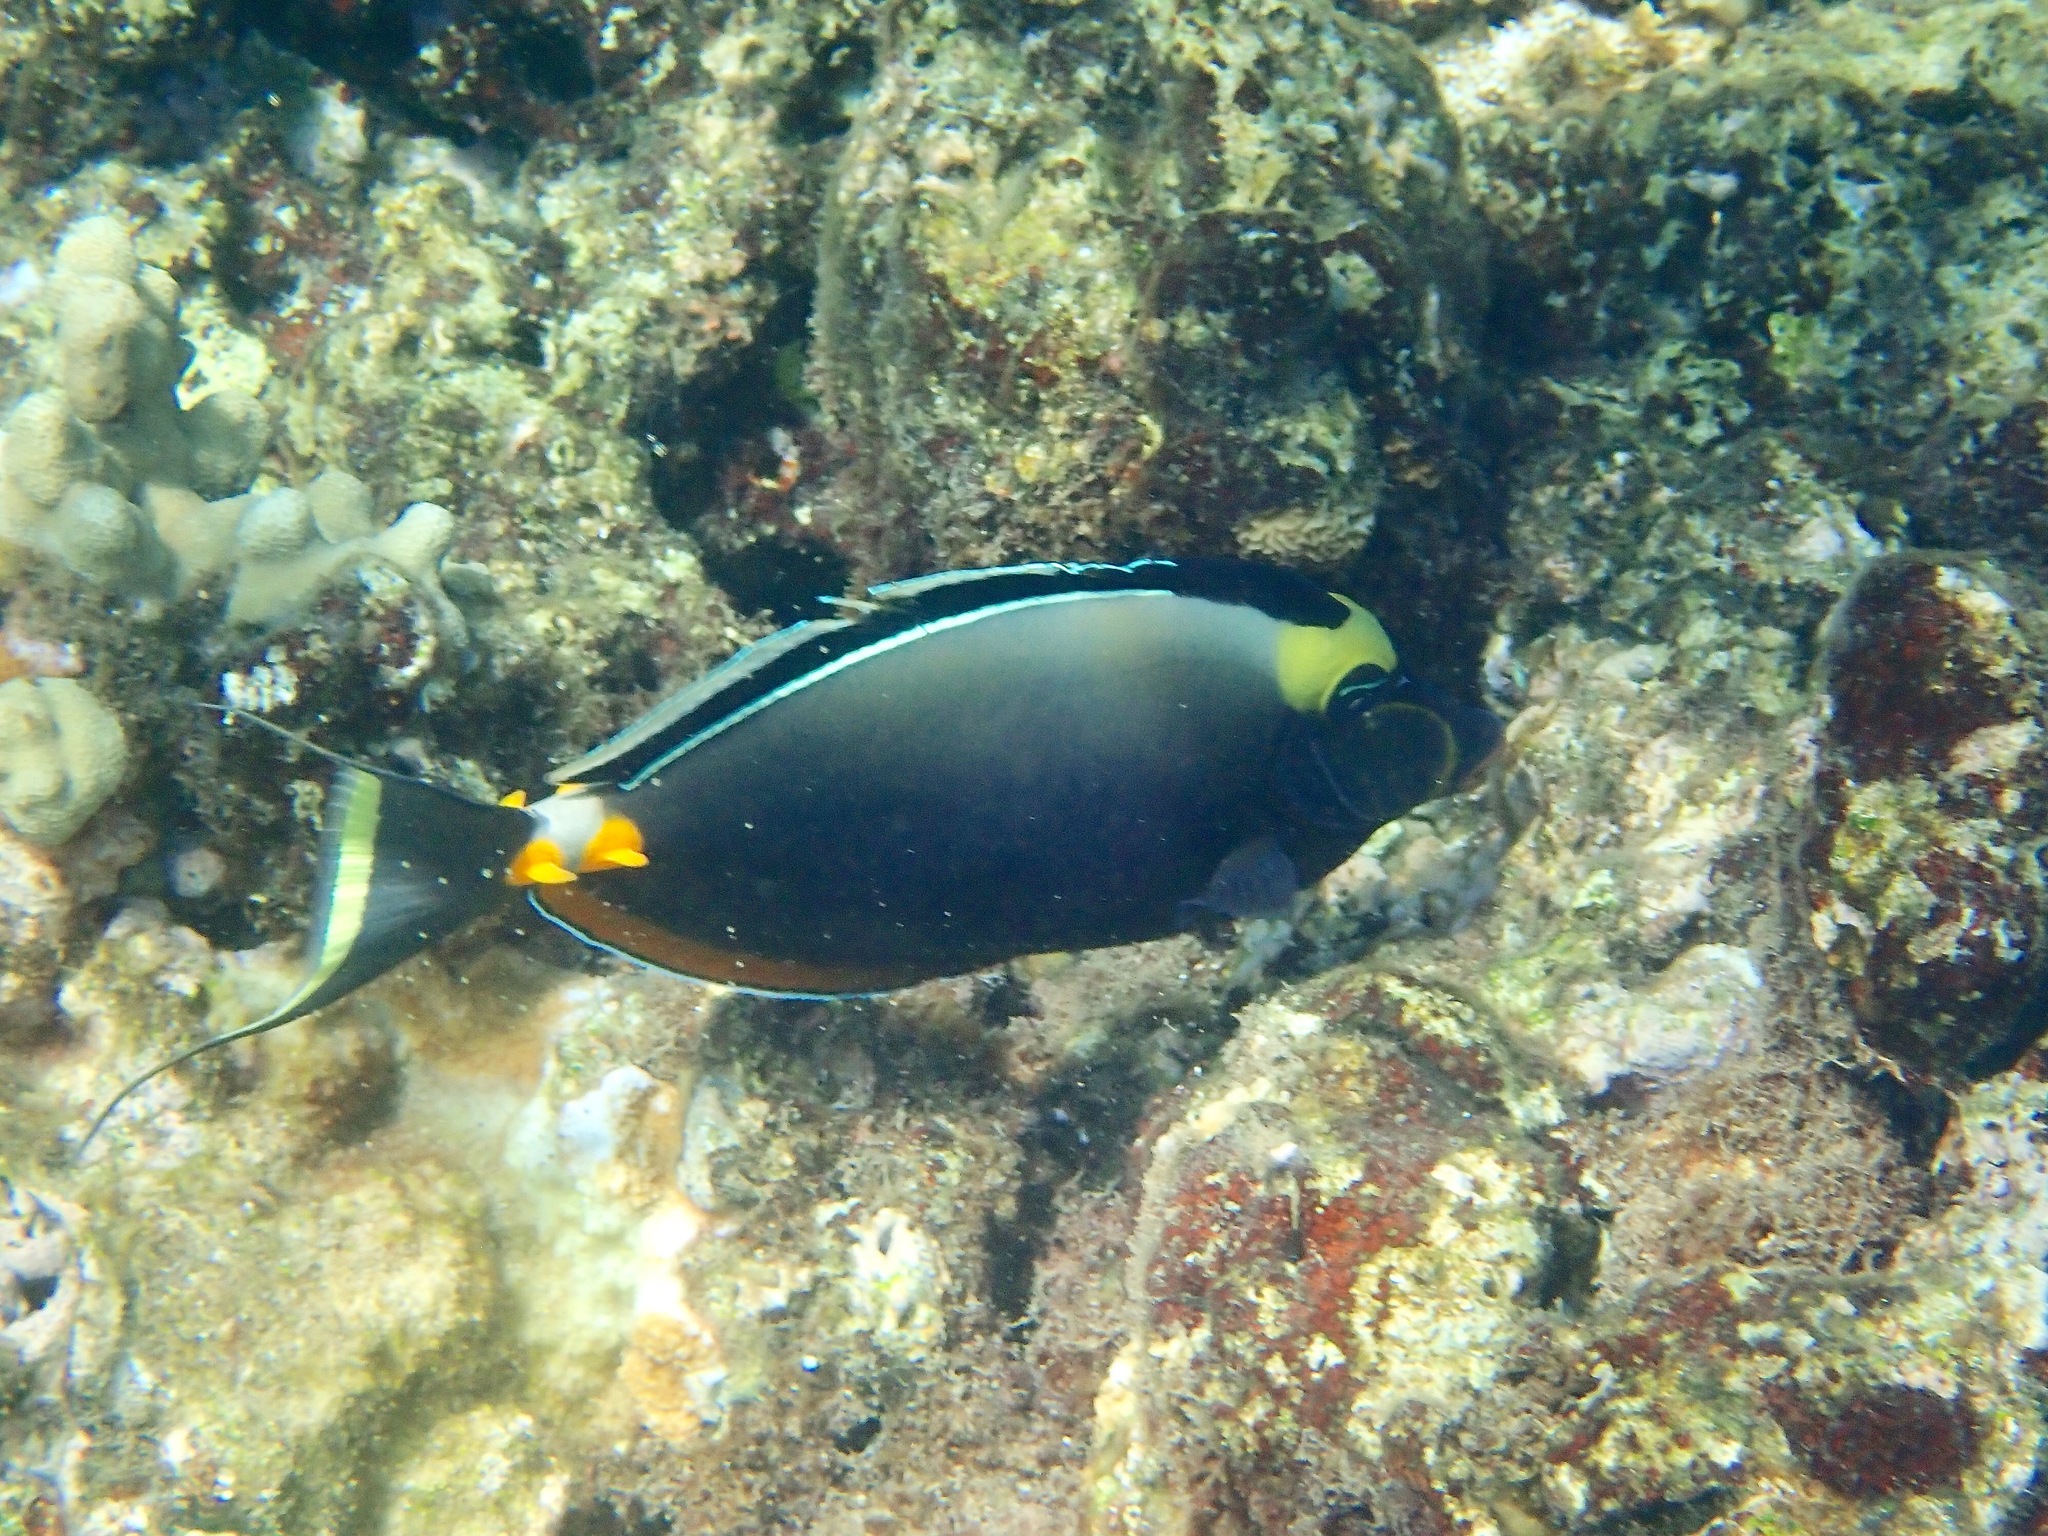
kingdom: Animalia
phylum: Chordata
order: Perciformes
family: Acanthuridae
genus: Naso
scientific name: Naso lituratus
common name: Orangespine unicornfish
